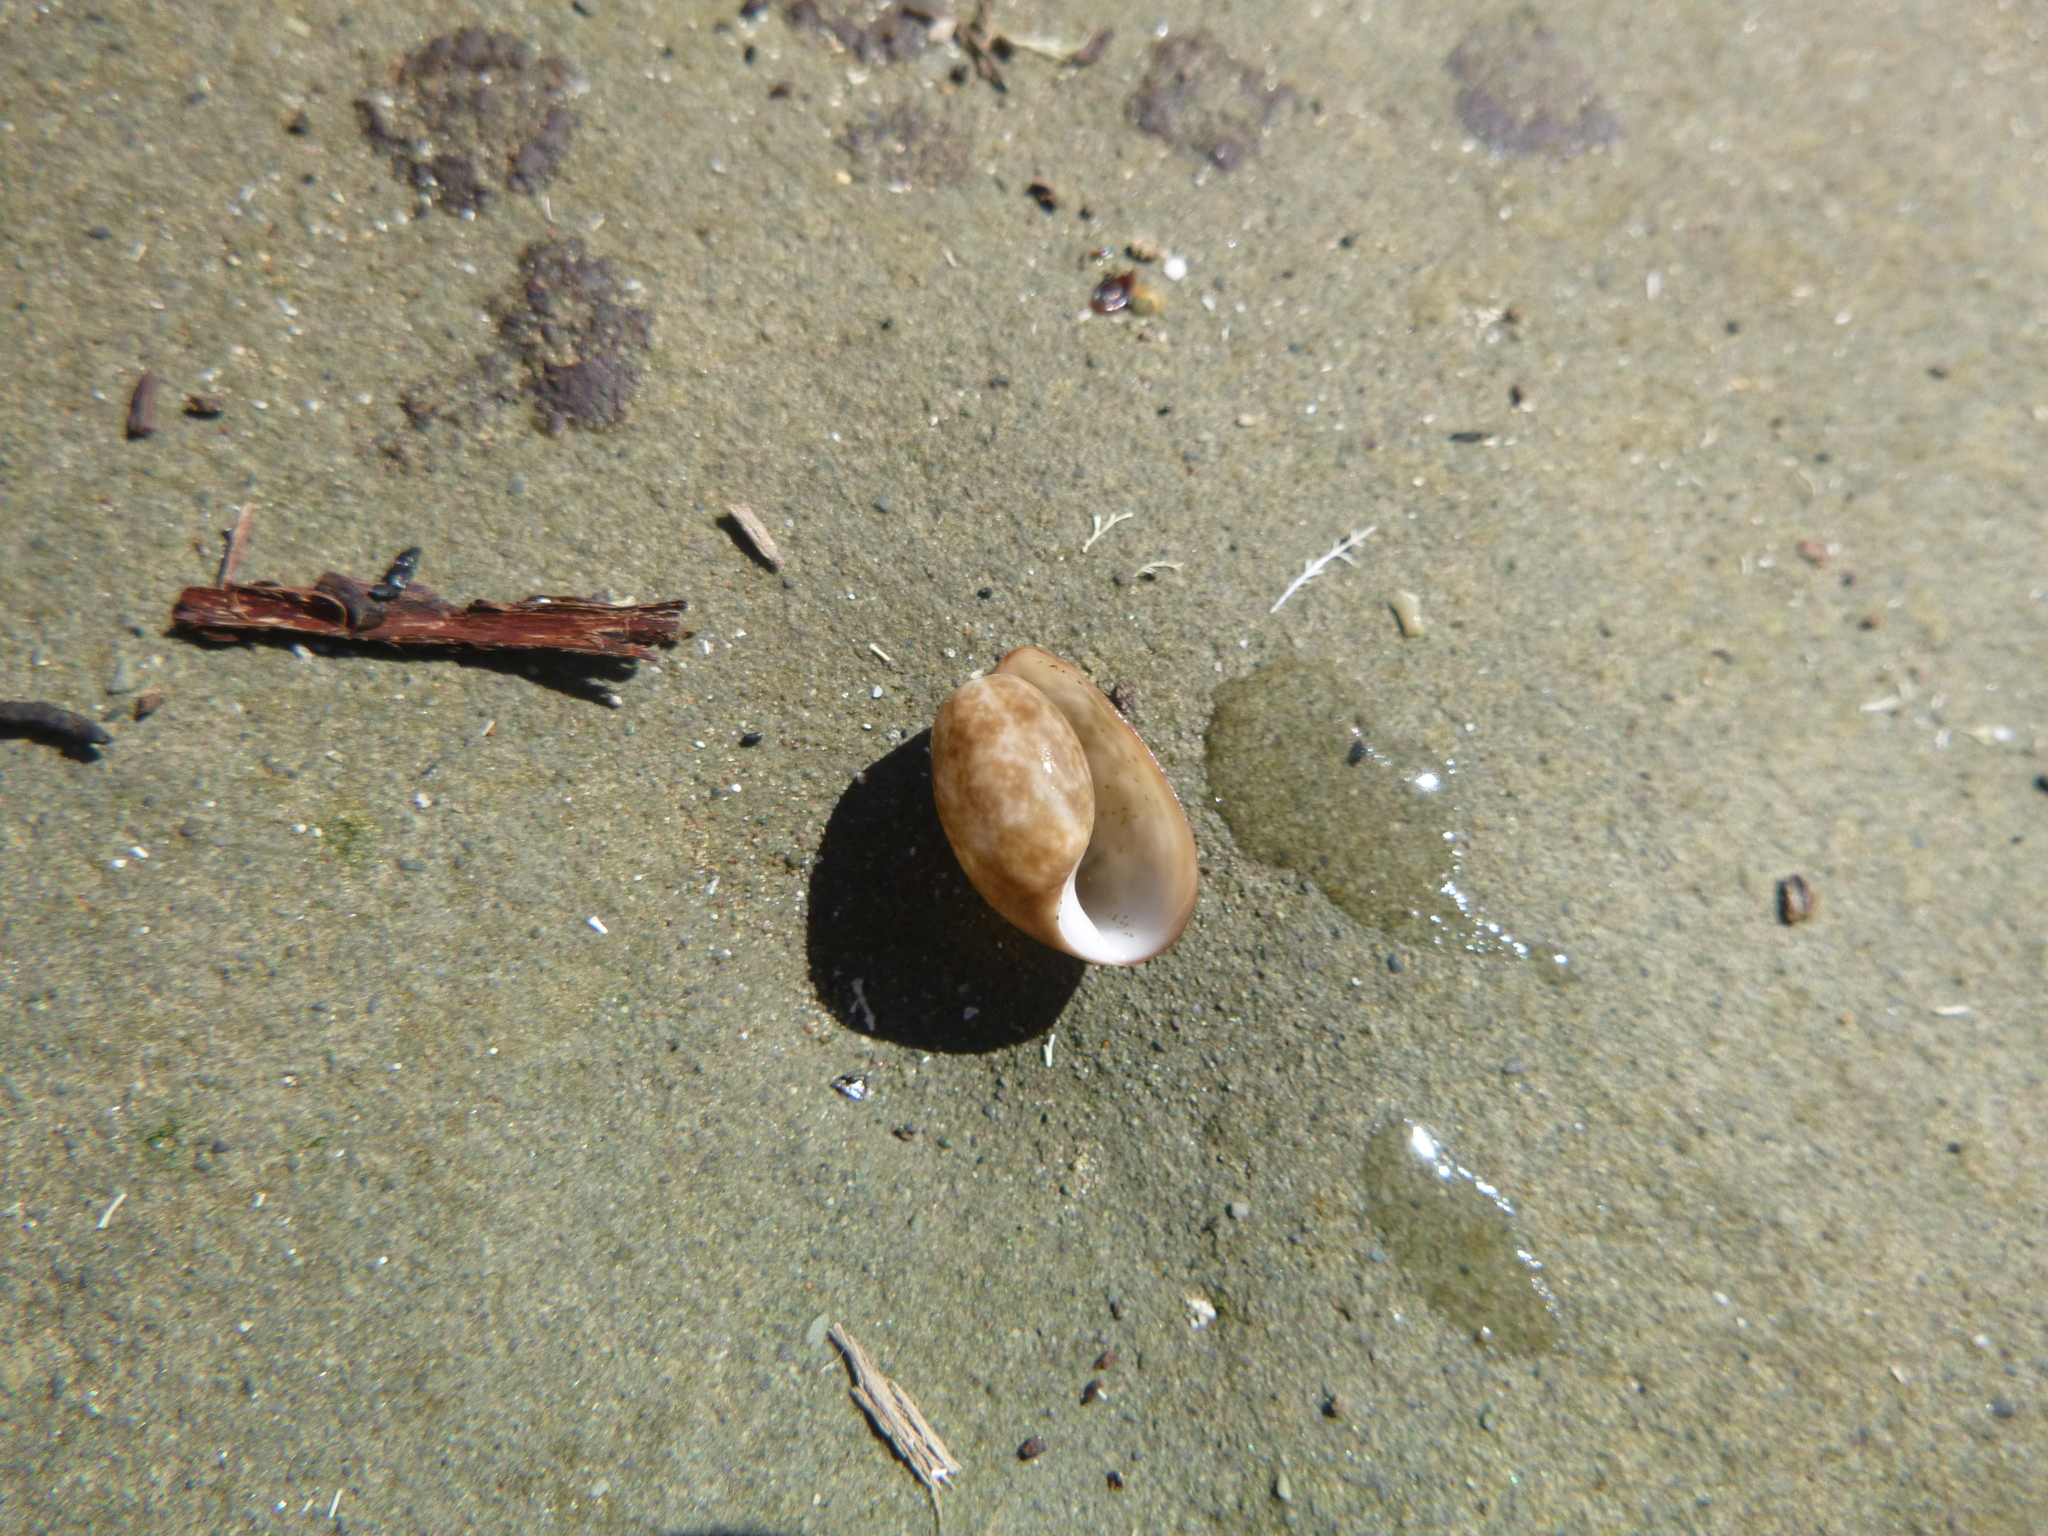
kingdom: Animalia
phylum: Mollusca
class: Gastropoda
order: Cephalaspidea
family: Bullidae
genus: Bulla
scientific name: Bulla quoyii
